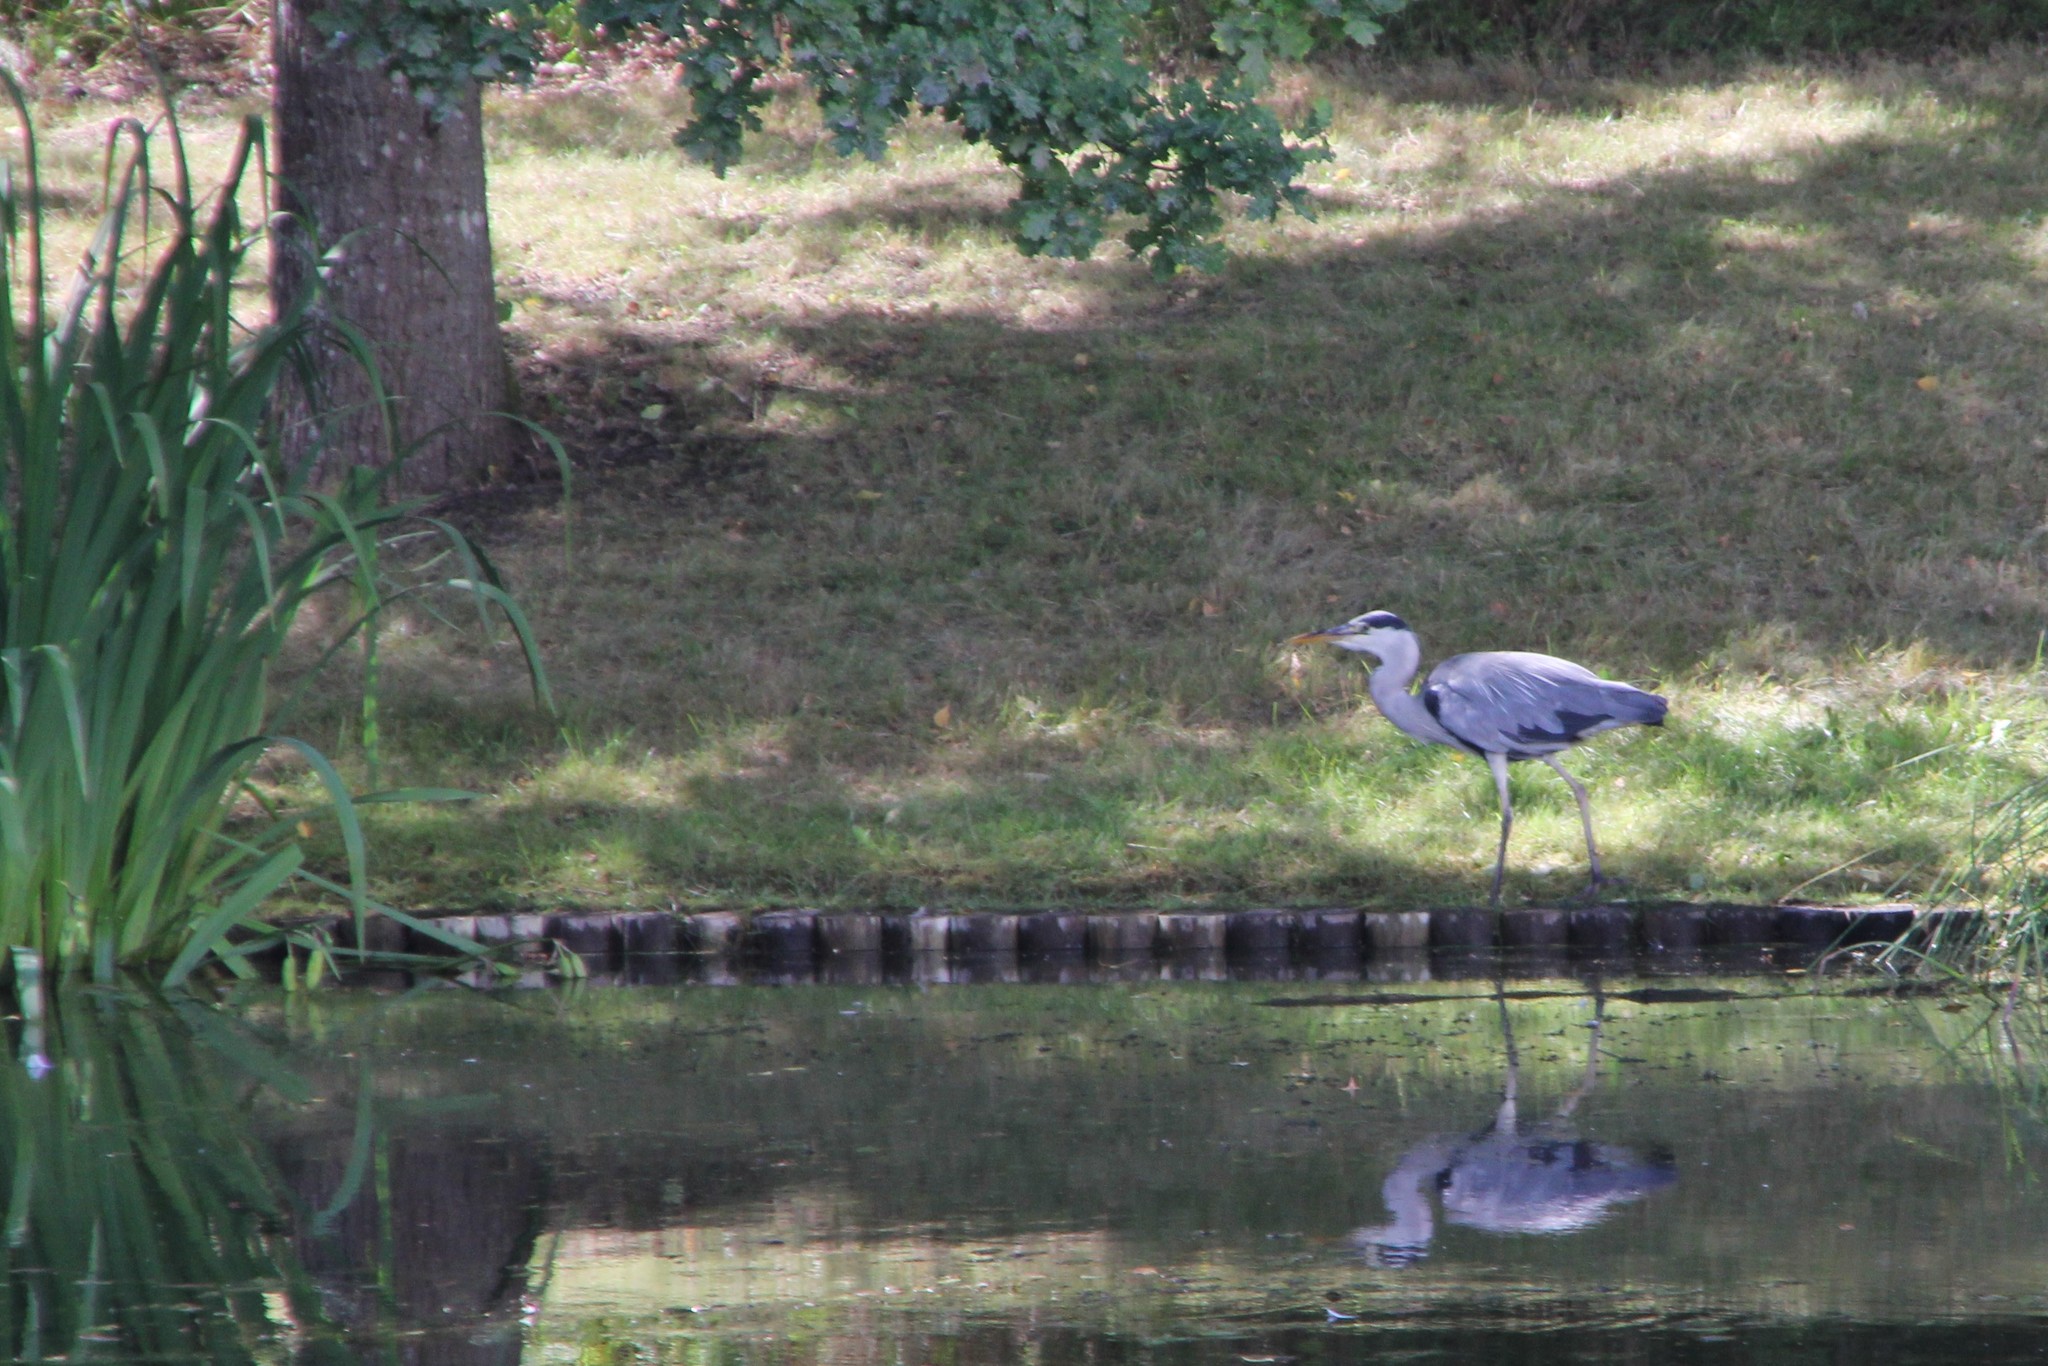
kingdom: Animalia
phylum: Chordata
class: Aves
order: Pelecaniformes
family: Ardeidae
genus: Ardea
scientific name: Ardea cinerea
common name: Grey heron
